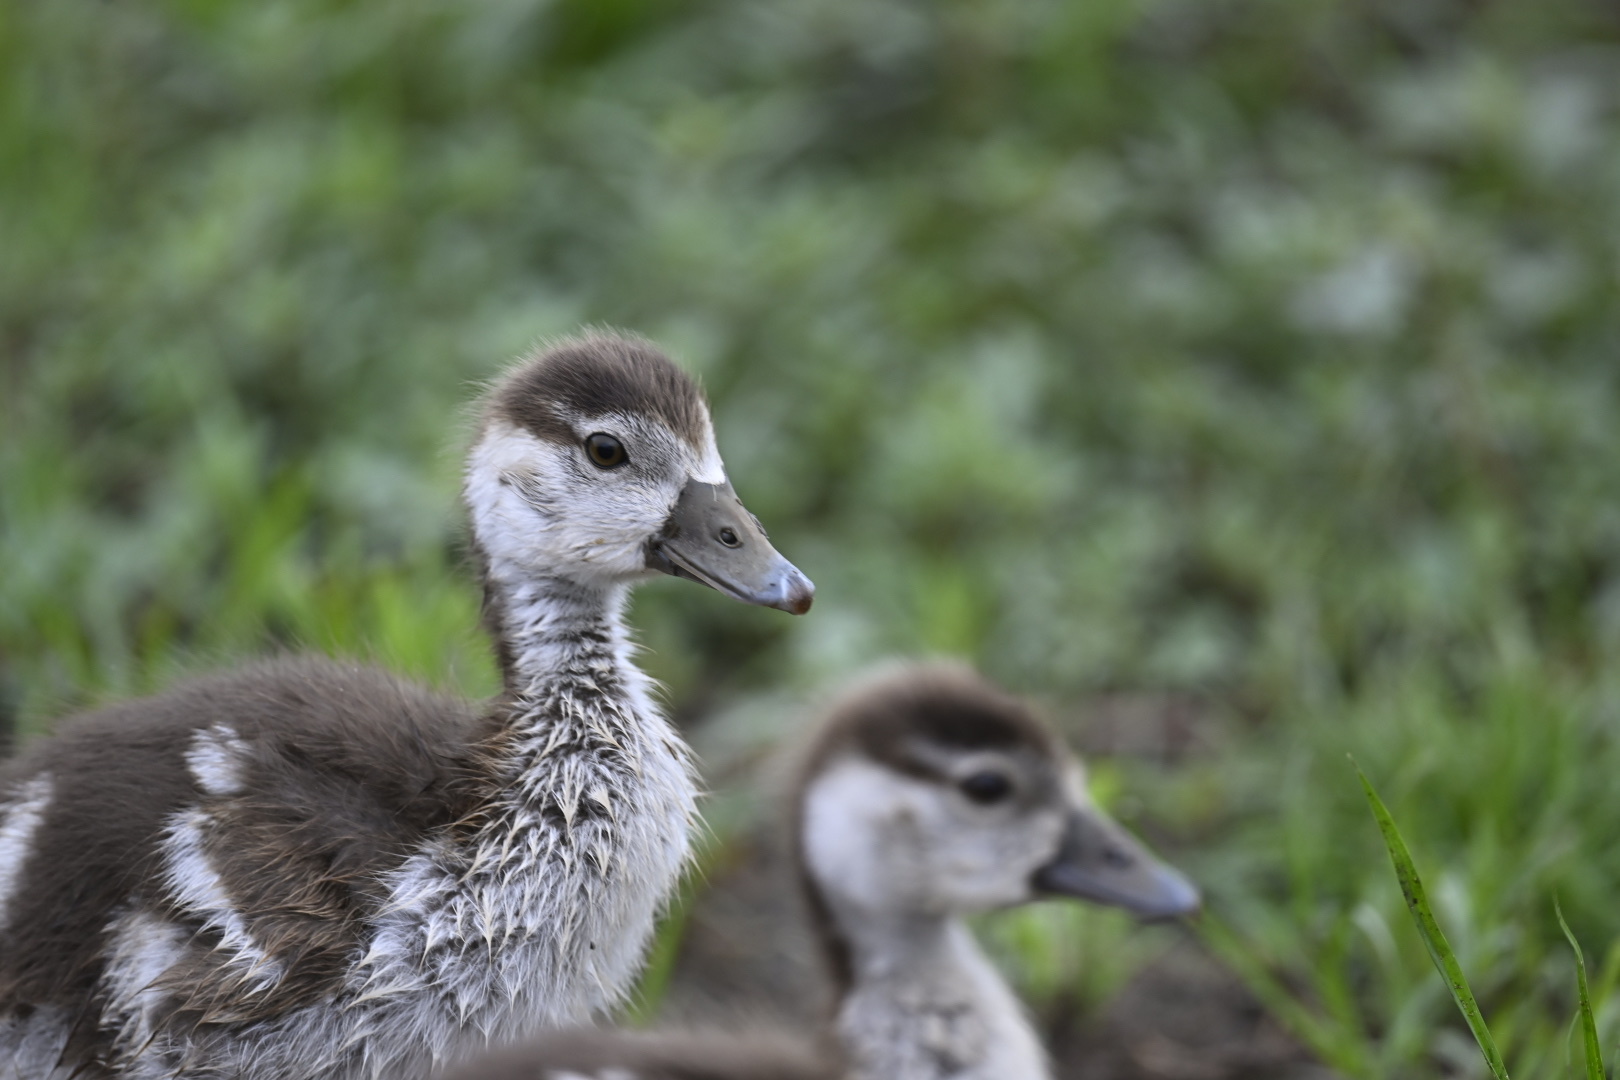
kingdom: Animalia
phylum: Chordata
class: Aves
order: Anseriformes
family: Anatidae
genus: Alopochen
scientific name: Alopochen aegyptiaca
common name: Egyptian goose
